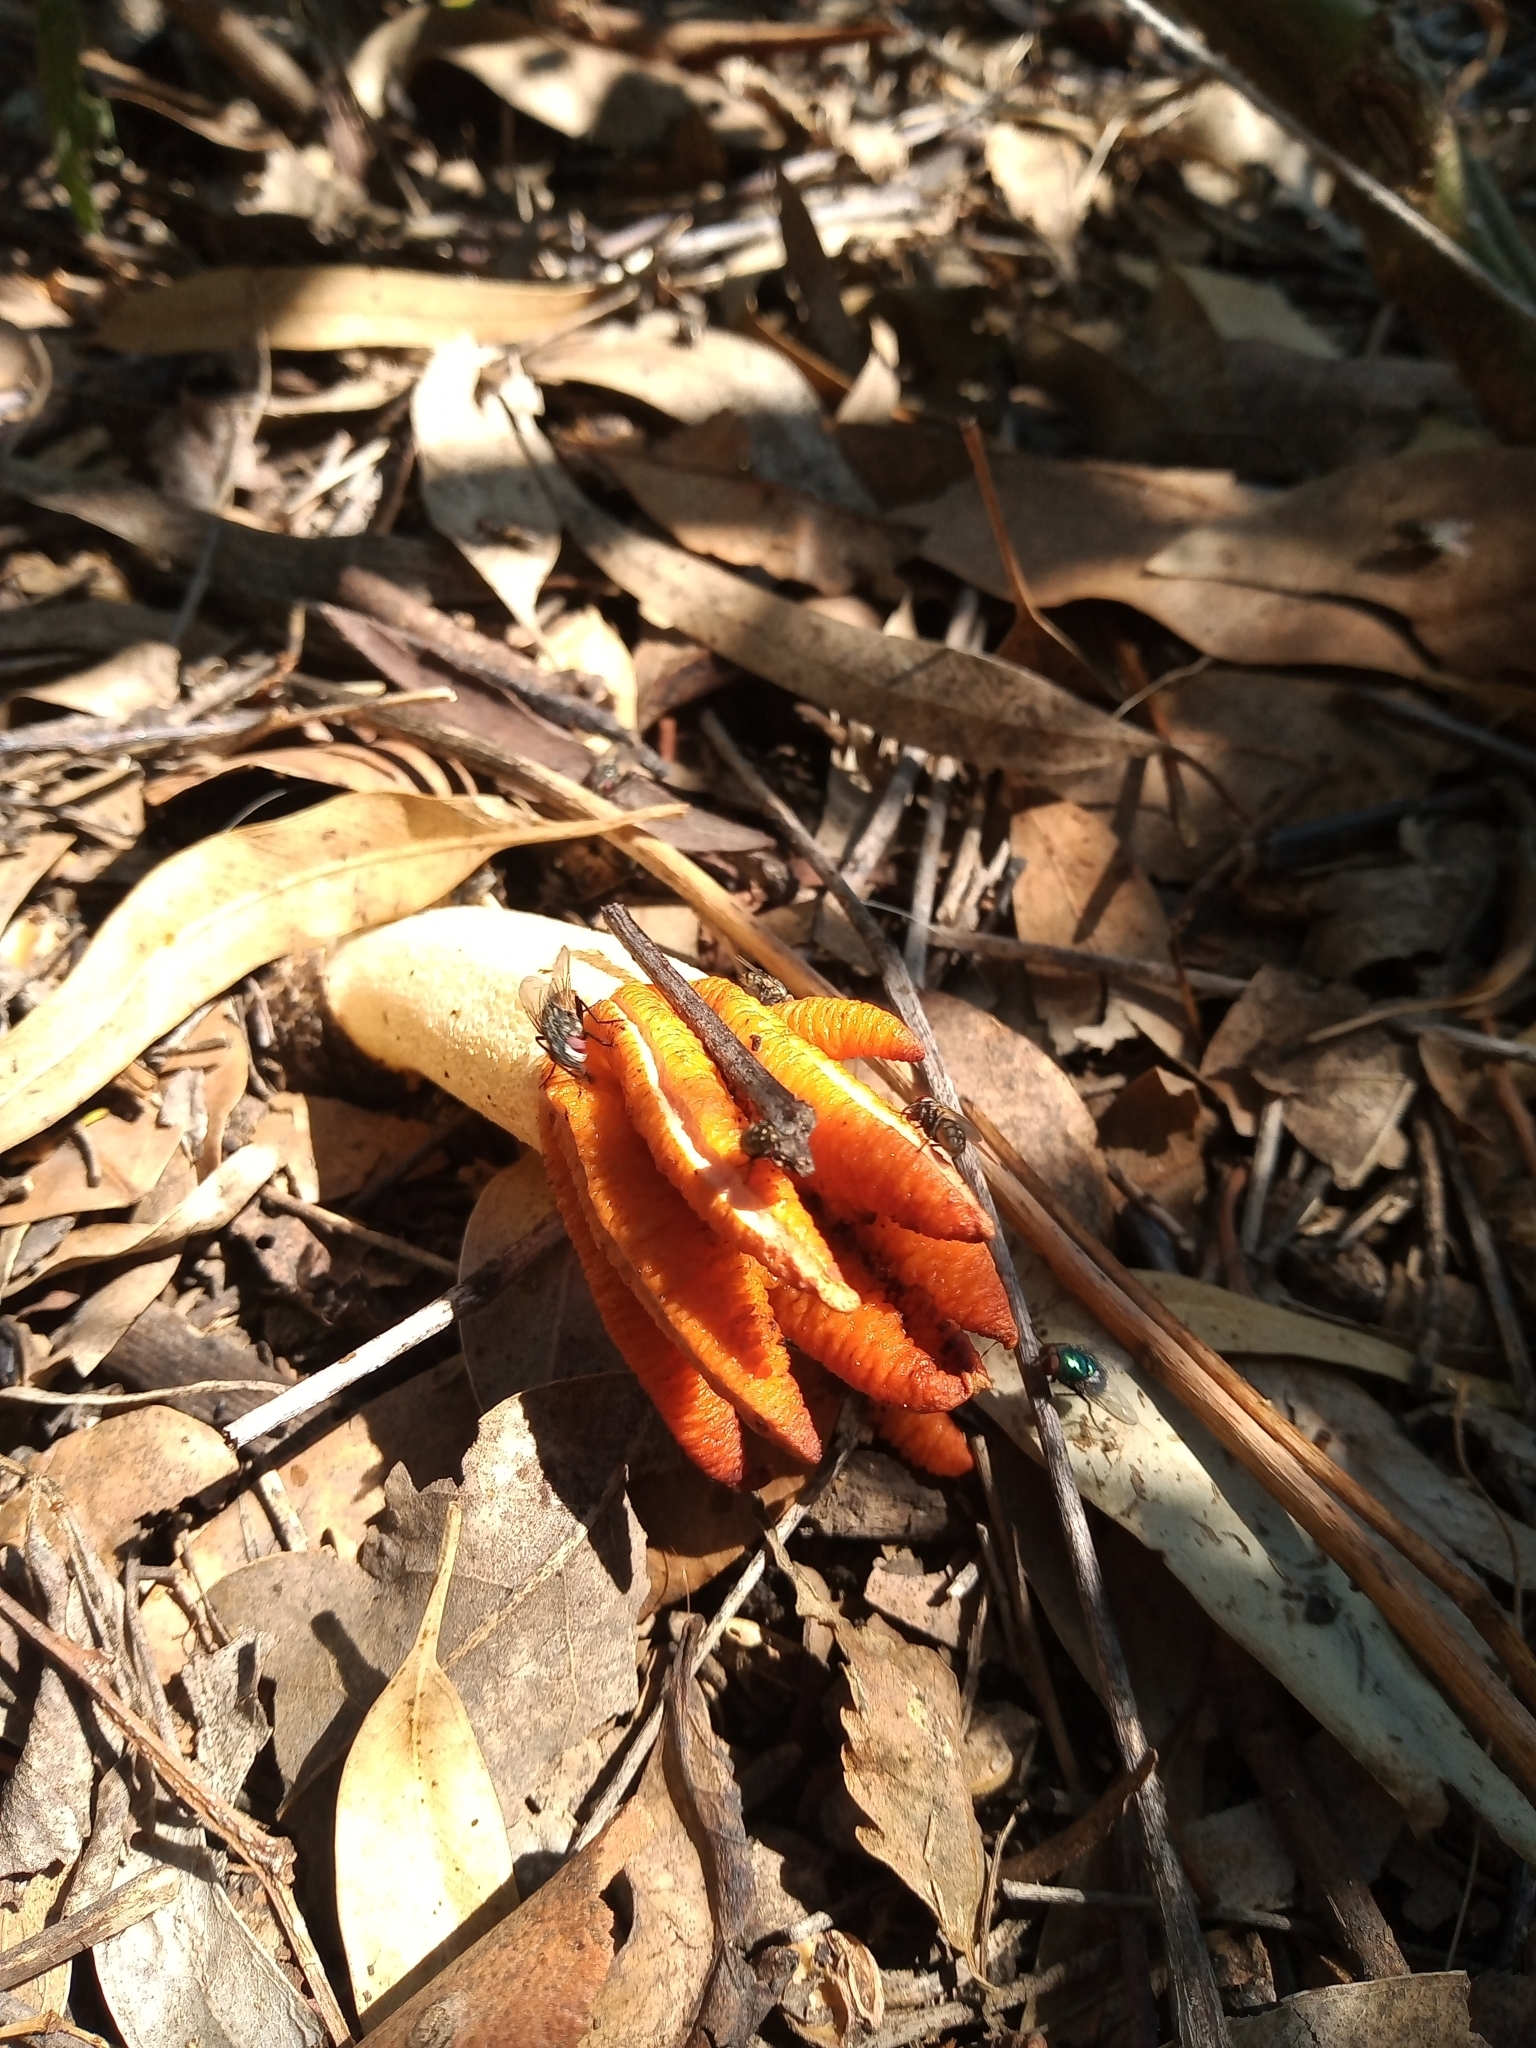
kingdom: Fungi
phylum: Basidiomycota
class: Agaricomycetes
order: Phallales
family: Phallaceae
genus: Lysurus
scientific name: Lysurus cruciatus
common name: Lizard's claw
